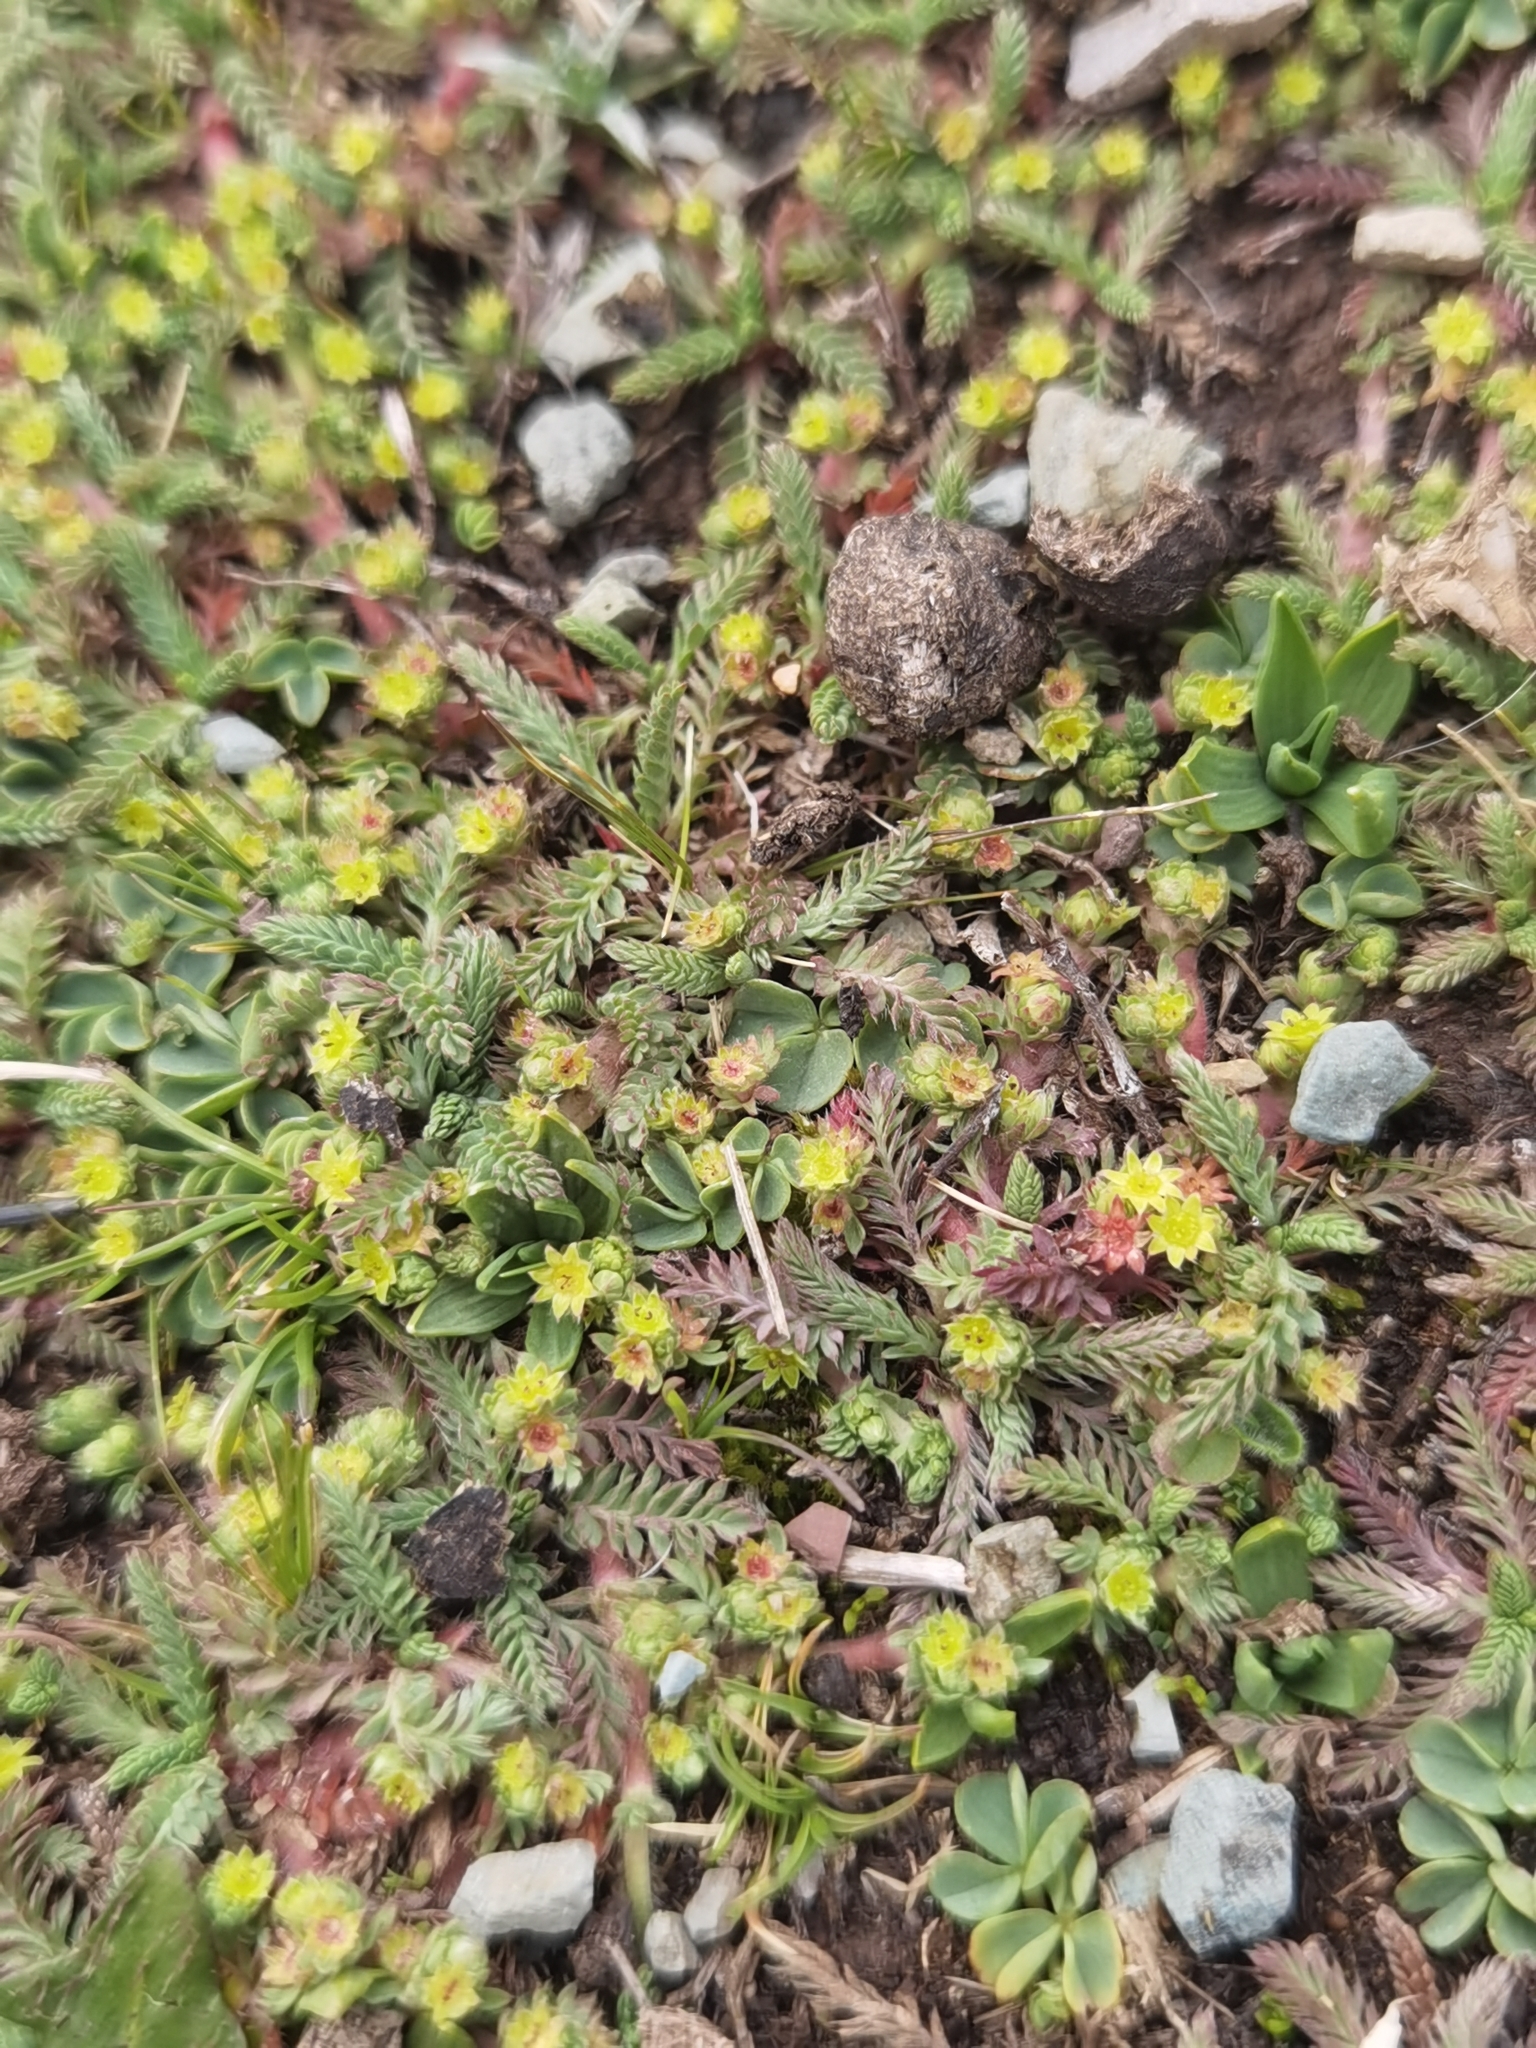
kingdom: Plantae
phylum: Tracheophyta
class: Magnoliopsida
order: Rosales
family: Rosaceae
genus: Lachemilla
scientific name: Lachemilla
